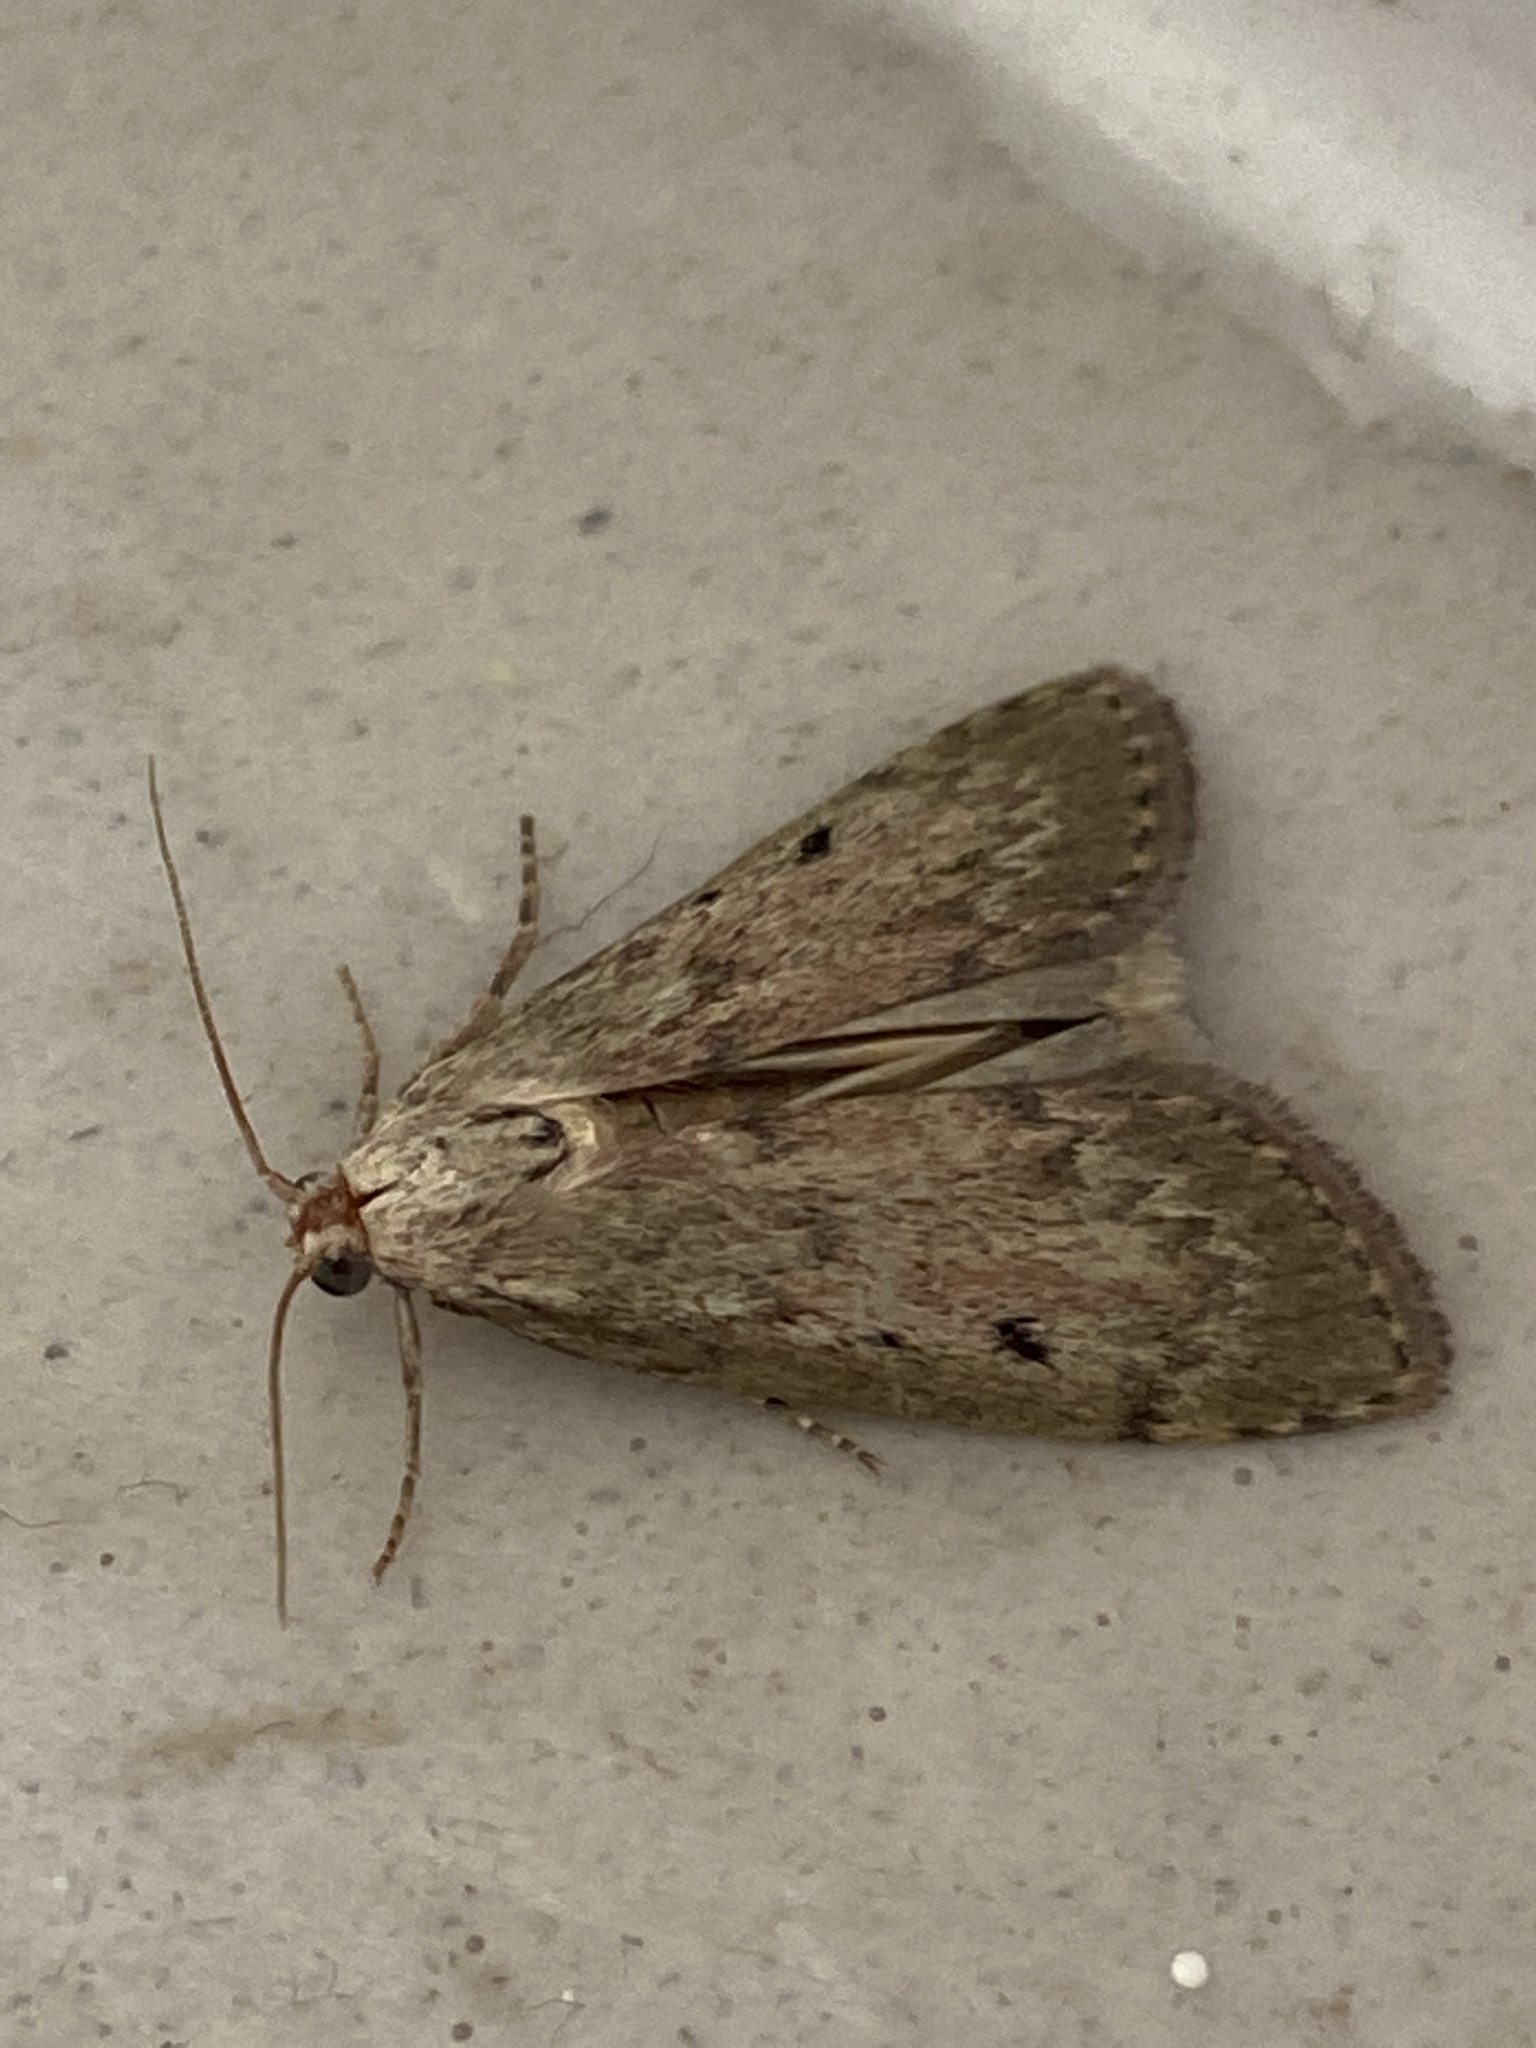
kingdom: Animalia
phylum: Arthropoda
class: Insecta
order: Lepidoptera
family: Pyralidae
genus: Aphomia
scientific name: Aphomia sociella
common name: Bee moth
